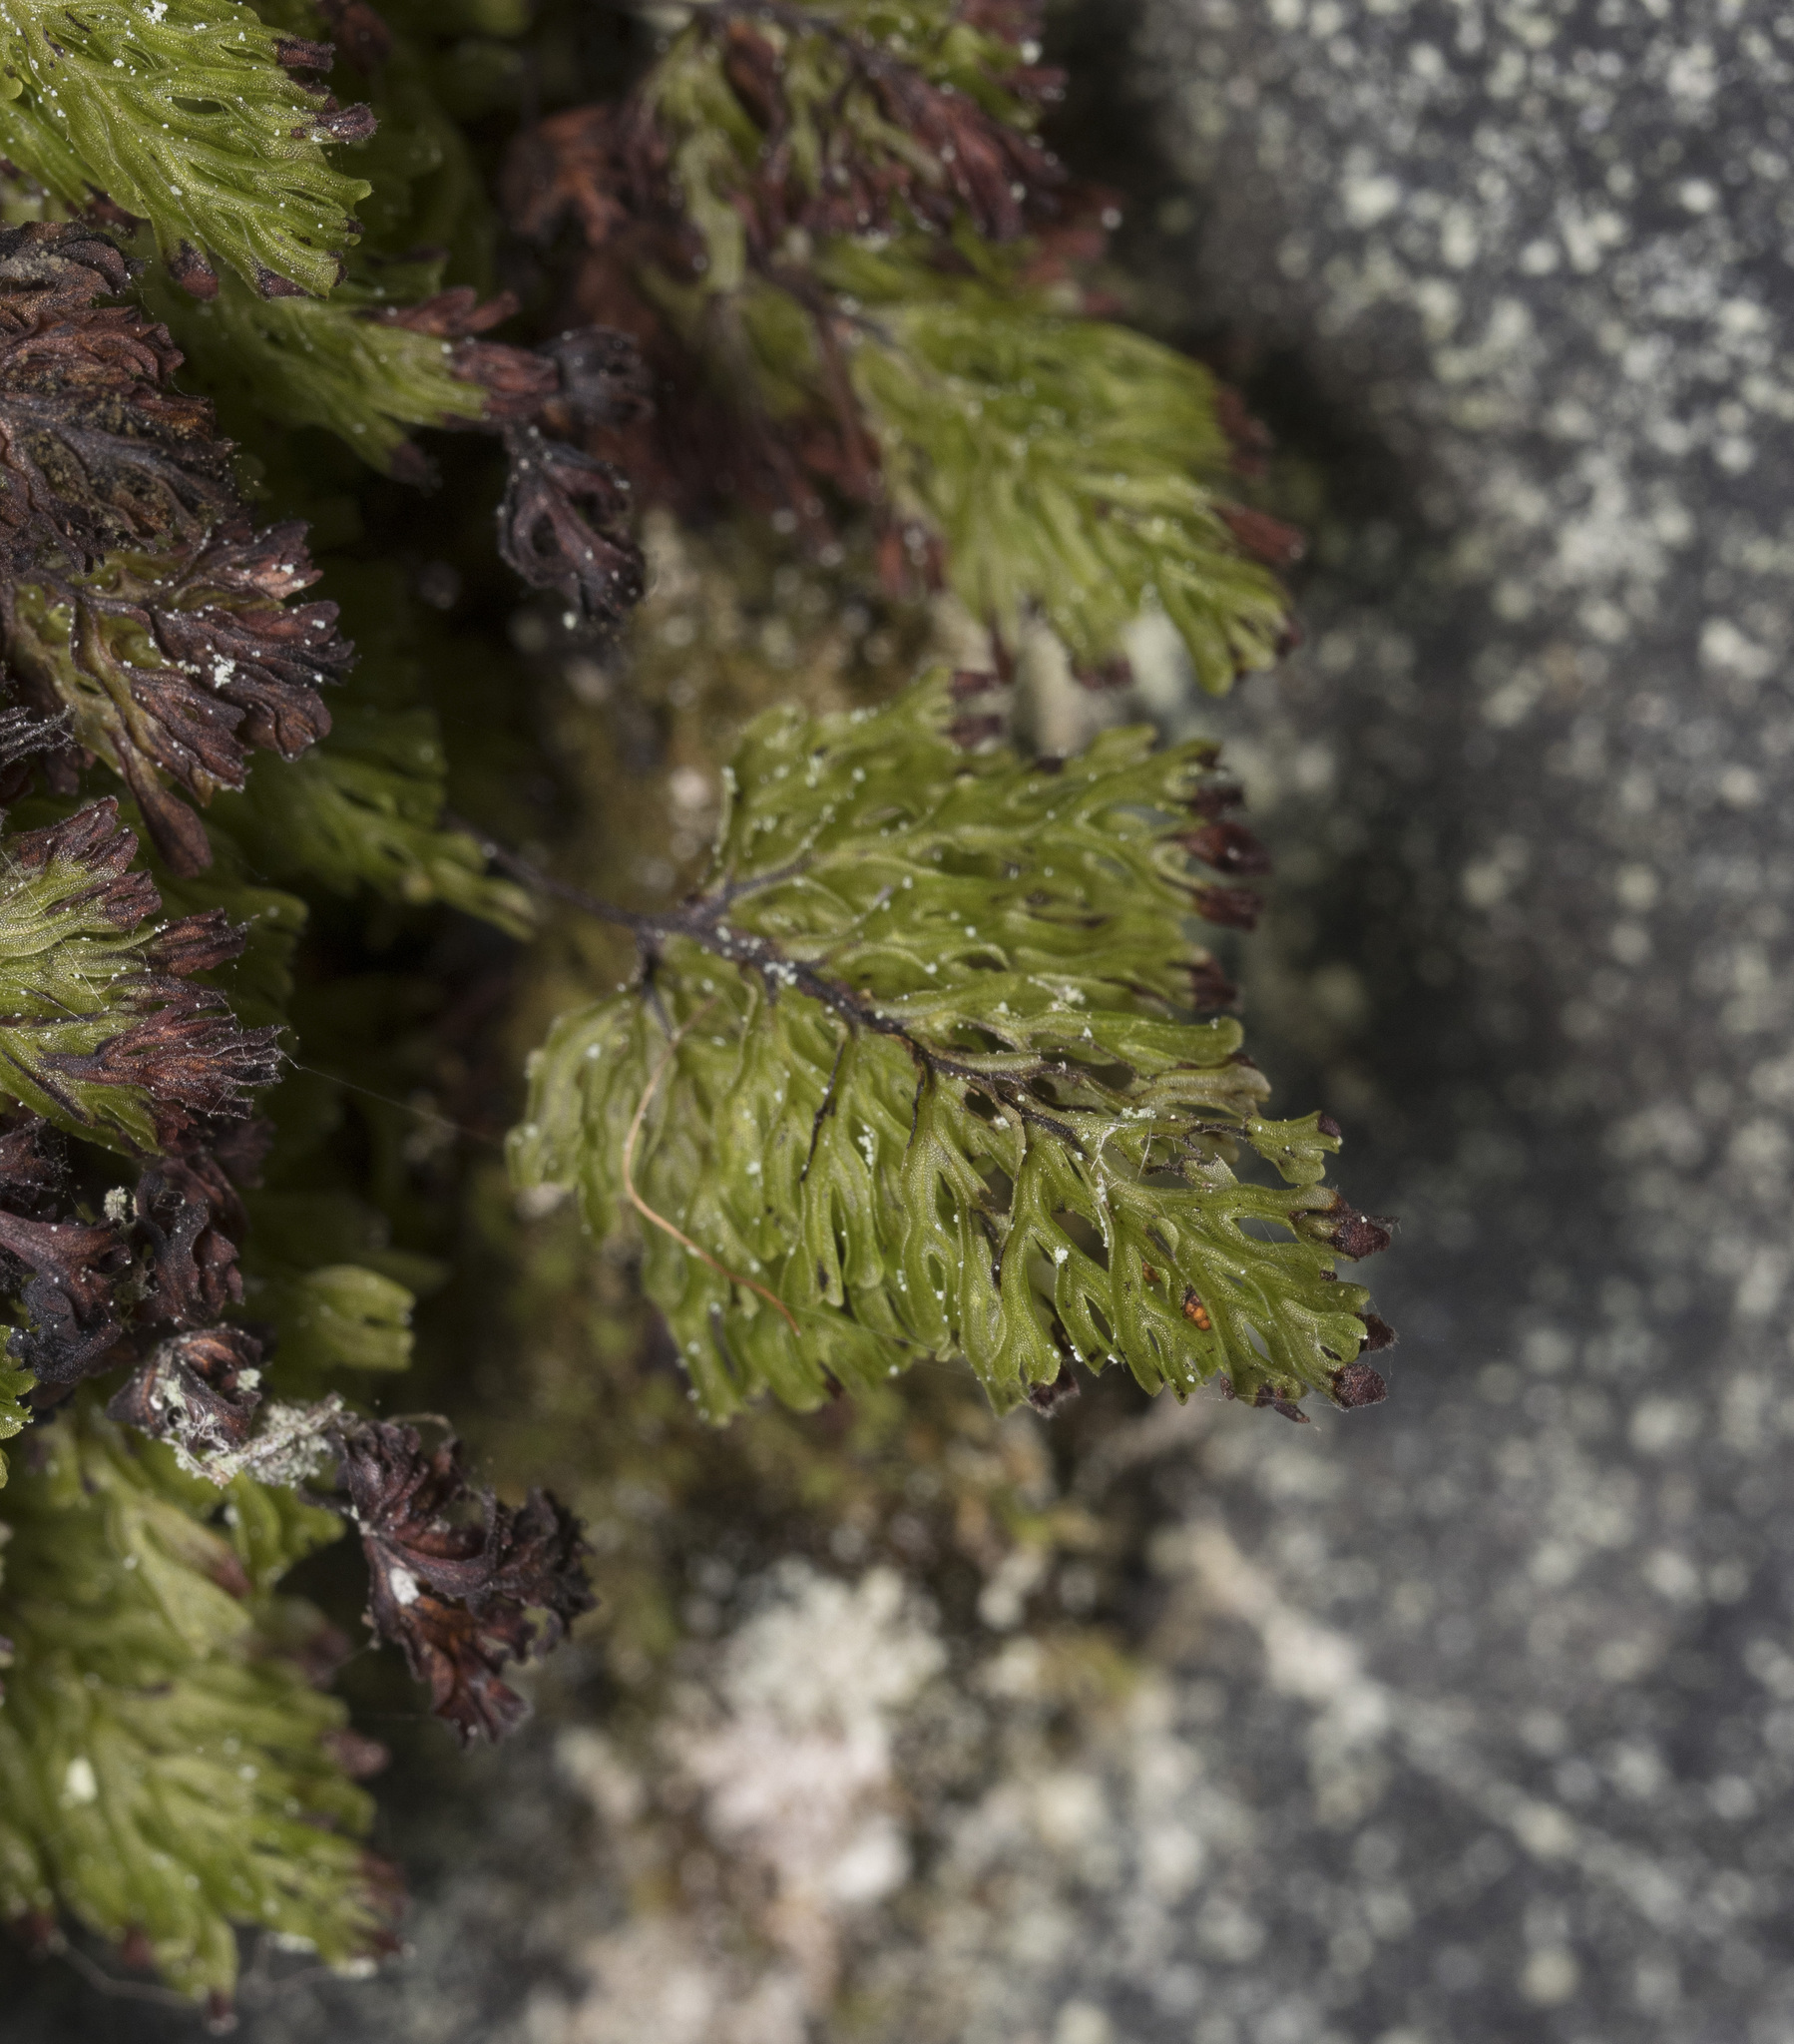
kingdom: Plantae
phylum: Tracheophyta
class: Polypodiopsida
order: Hymenophyllales
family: Hymenophyllaceae
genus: Hymenophyllum
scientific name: Hymenophyllum darwinii
